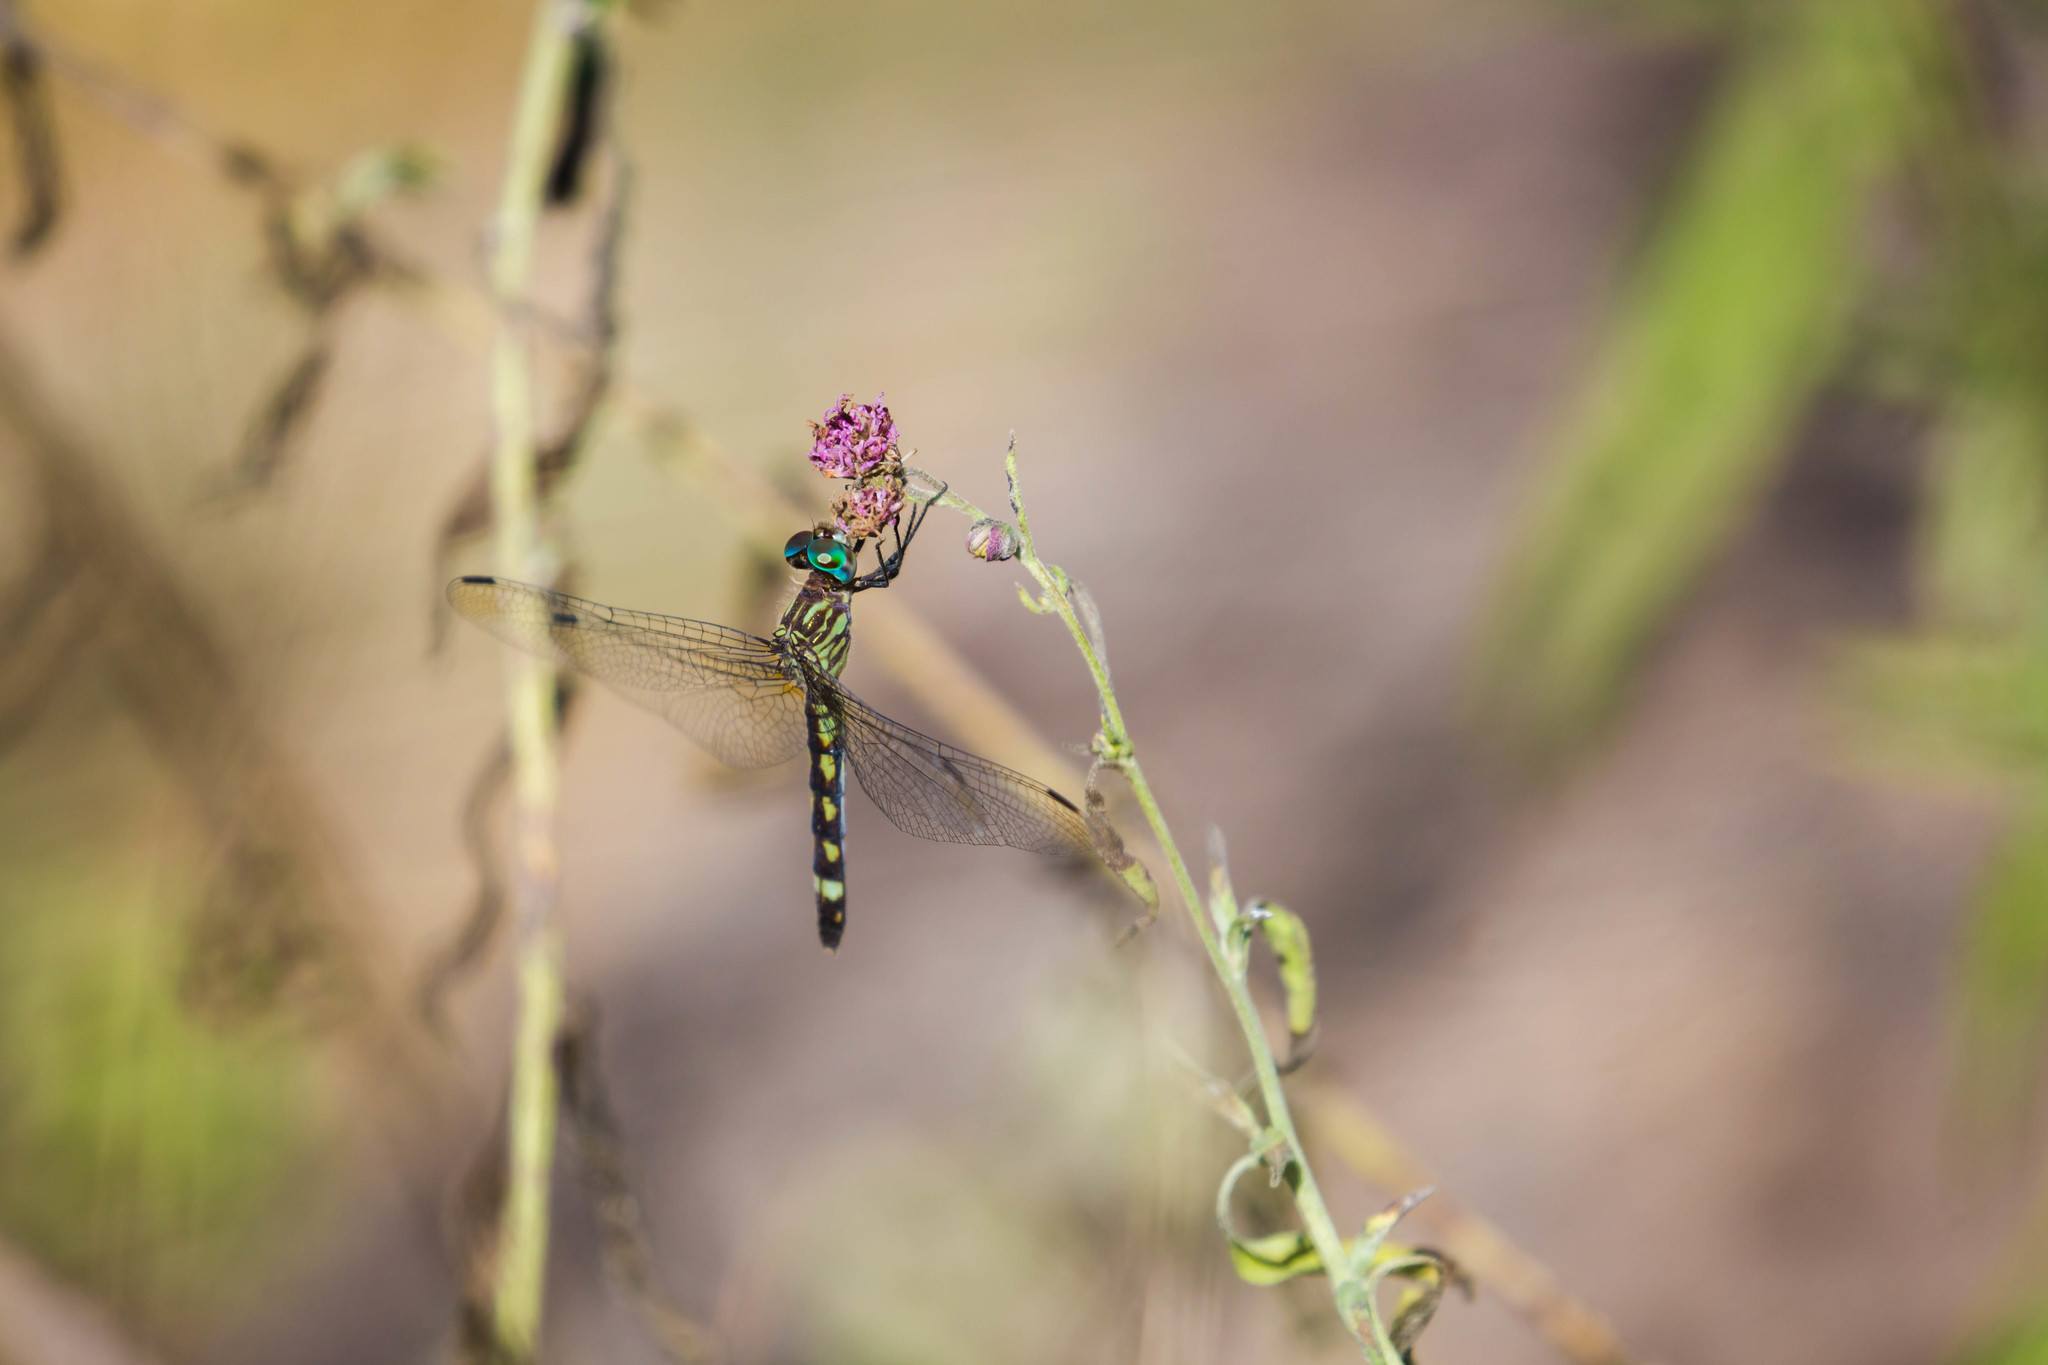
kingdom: Animalia
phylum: Arthropoda
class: Insecta
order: Odonata
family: Libellulidae
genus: Micrathyria
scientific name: Micrathyria hagenii
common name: Thornbush dasher
